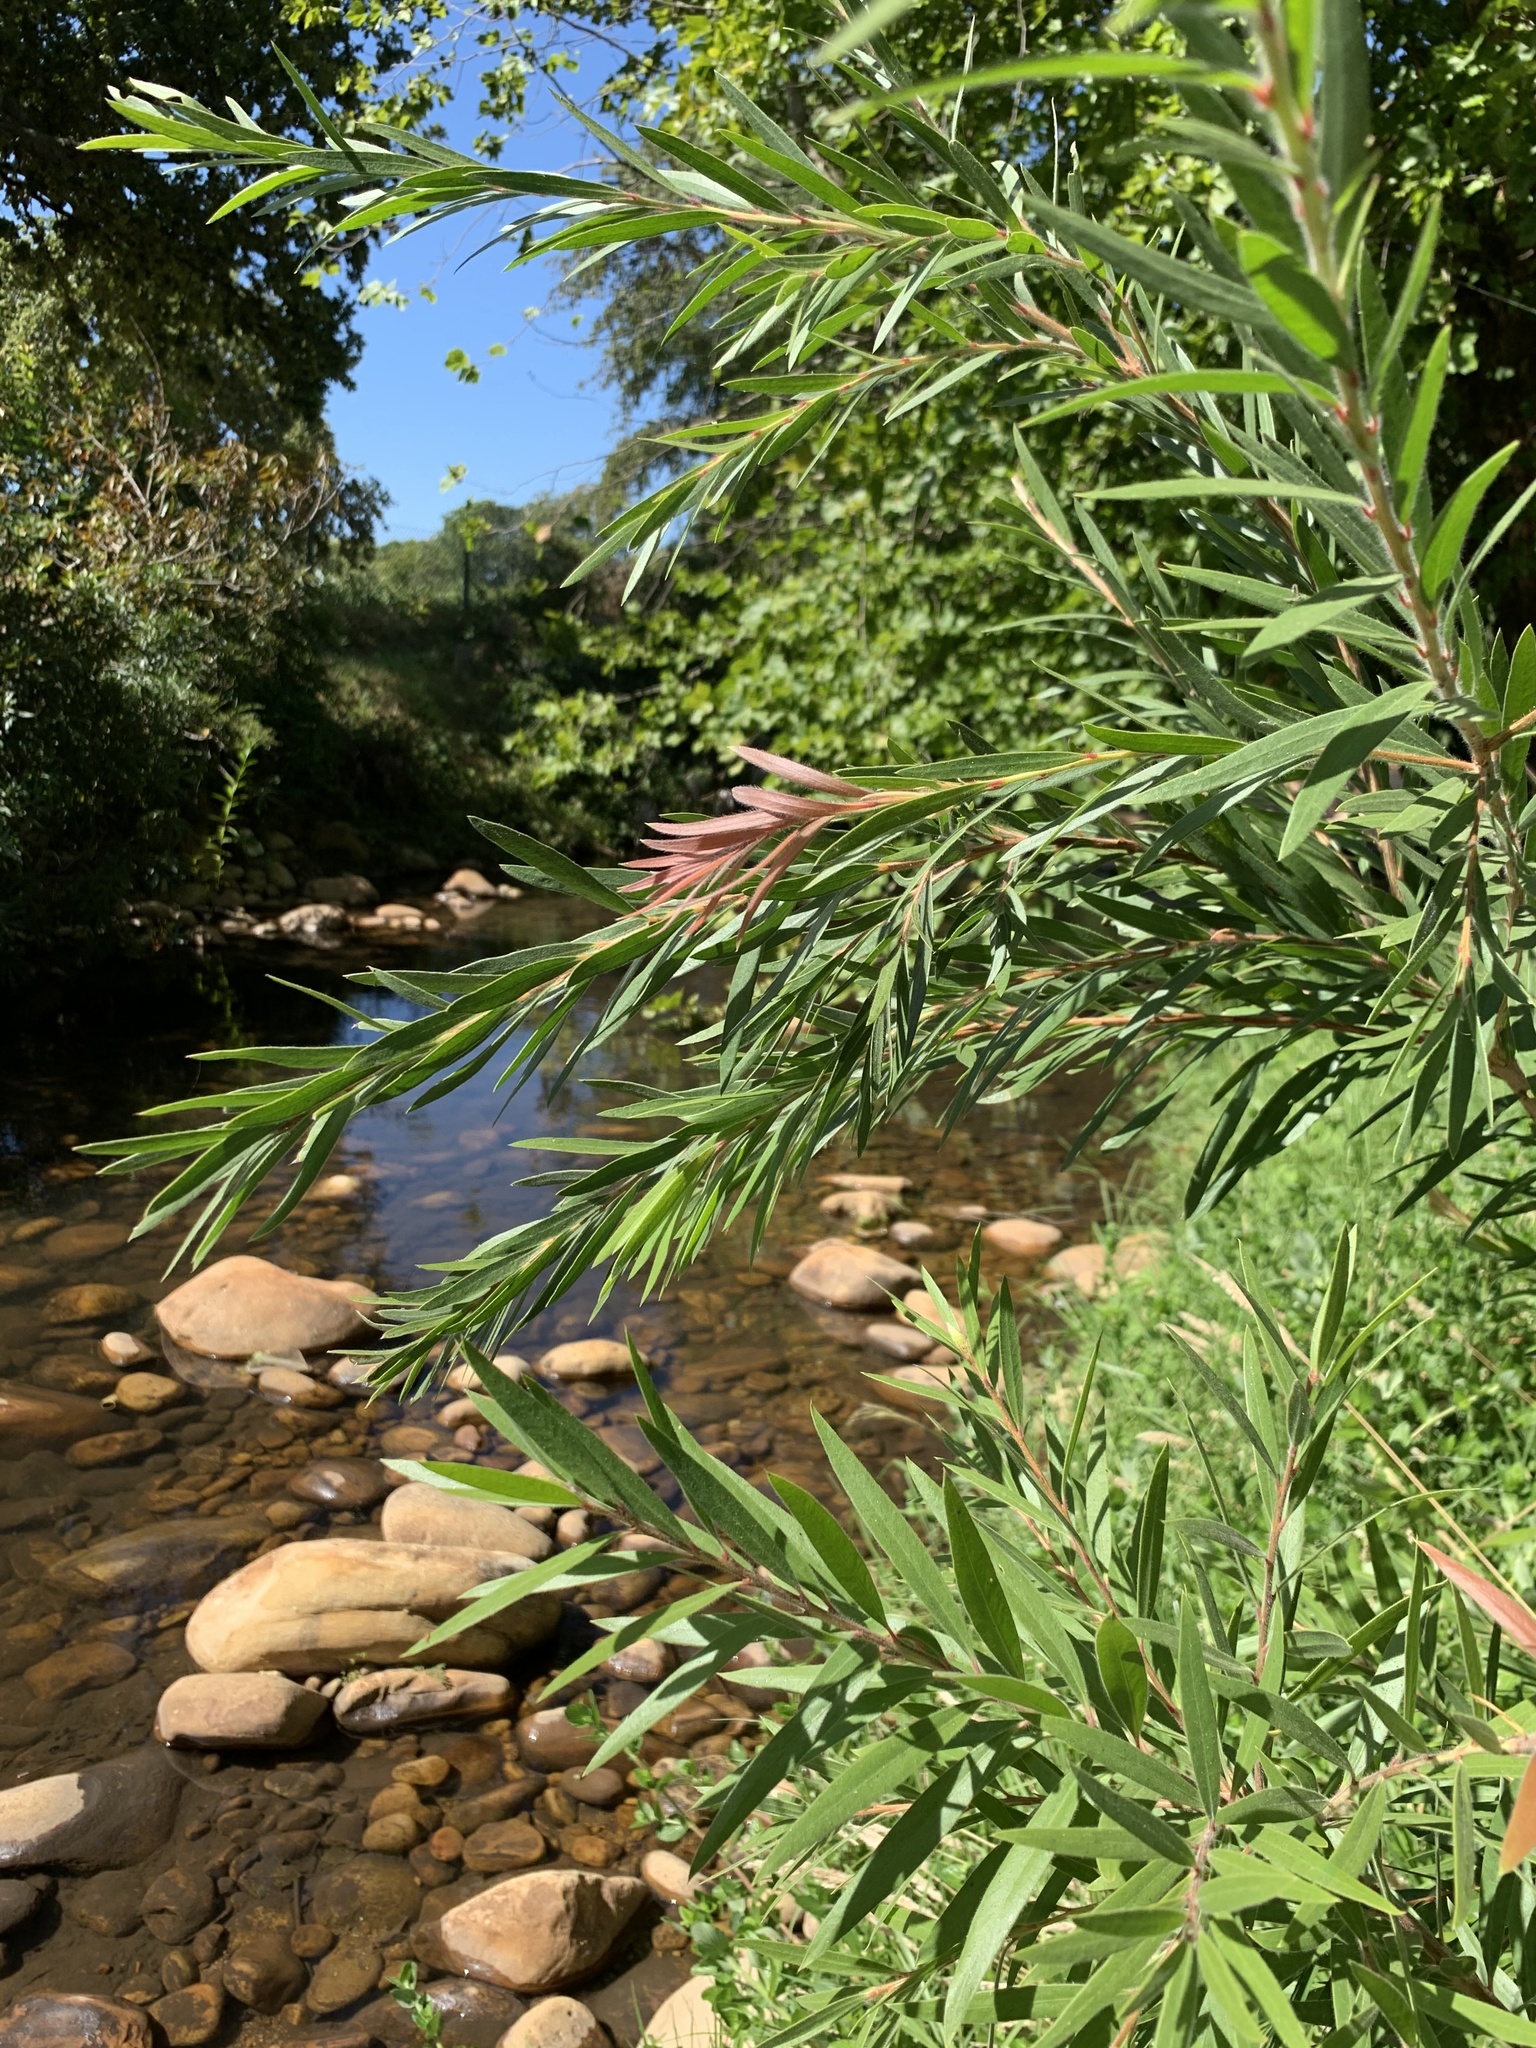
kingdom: Plantae
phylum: Tracheophyta
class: Magnoliopsida
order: Myrtales
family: Myrtaceae
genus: Callistemon
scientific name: Callistemon viminalis
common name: Drooping bottlebrush
